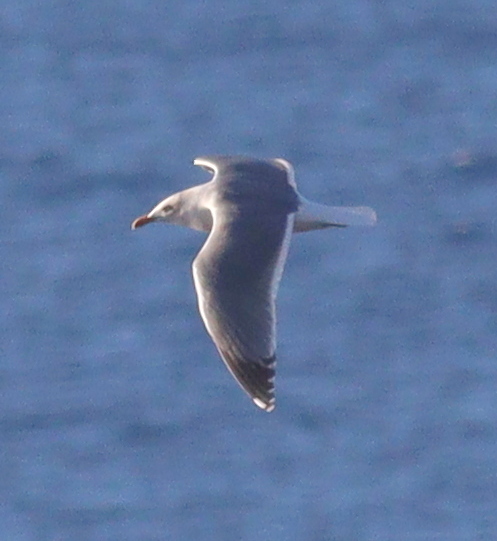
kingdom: Animalia
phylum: Chordata
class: Aves
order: Charadriiformes
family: Laridae
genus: Larus
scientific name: Larus michahellis
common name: Yellow-legged gull
